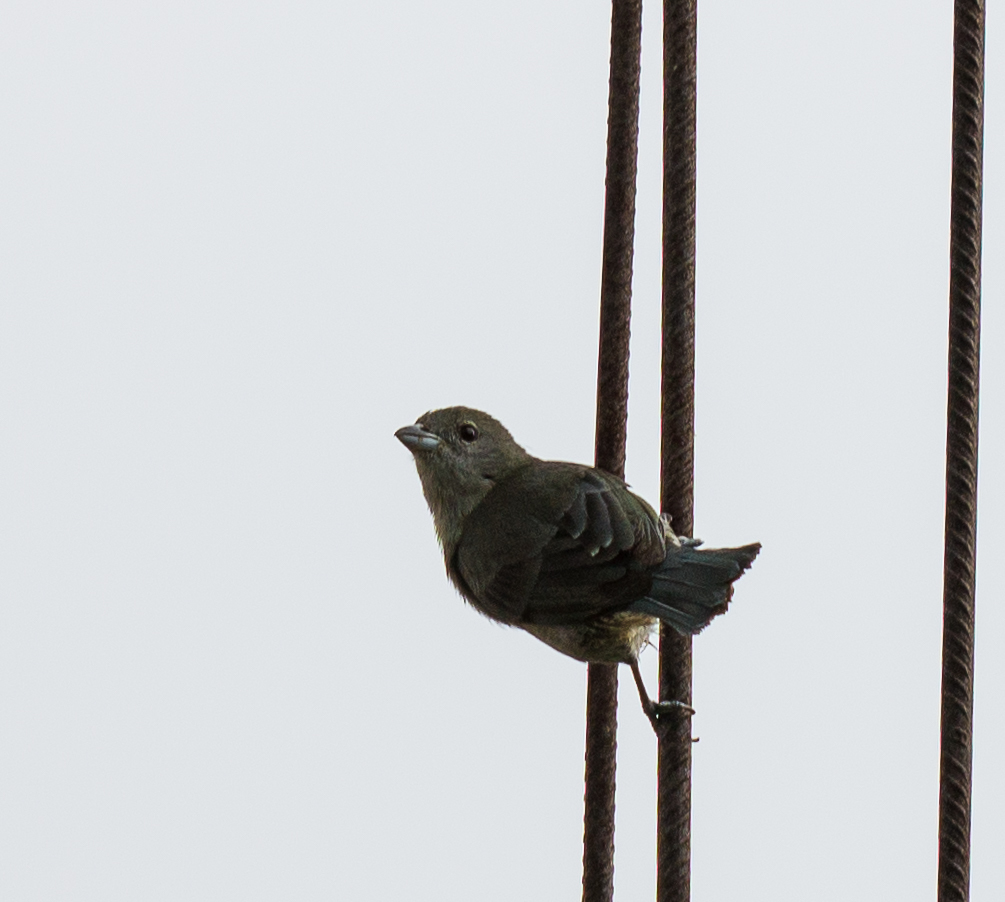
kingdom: Animalia
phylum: Chordata
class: Aves
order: Passeriformes
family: Thraupidae
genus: Thraupis
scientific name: Thraupis sayaca
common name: Sayaca tanager
